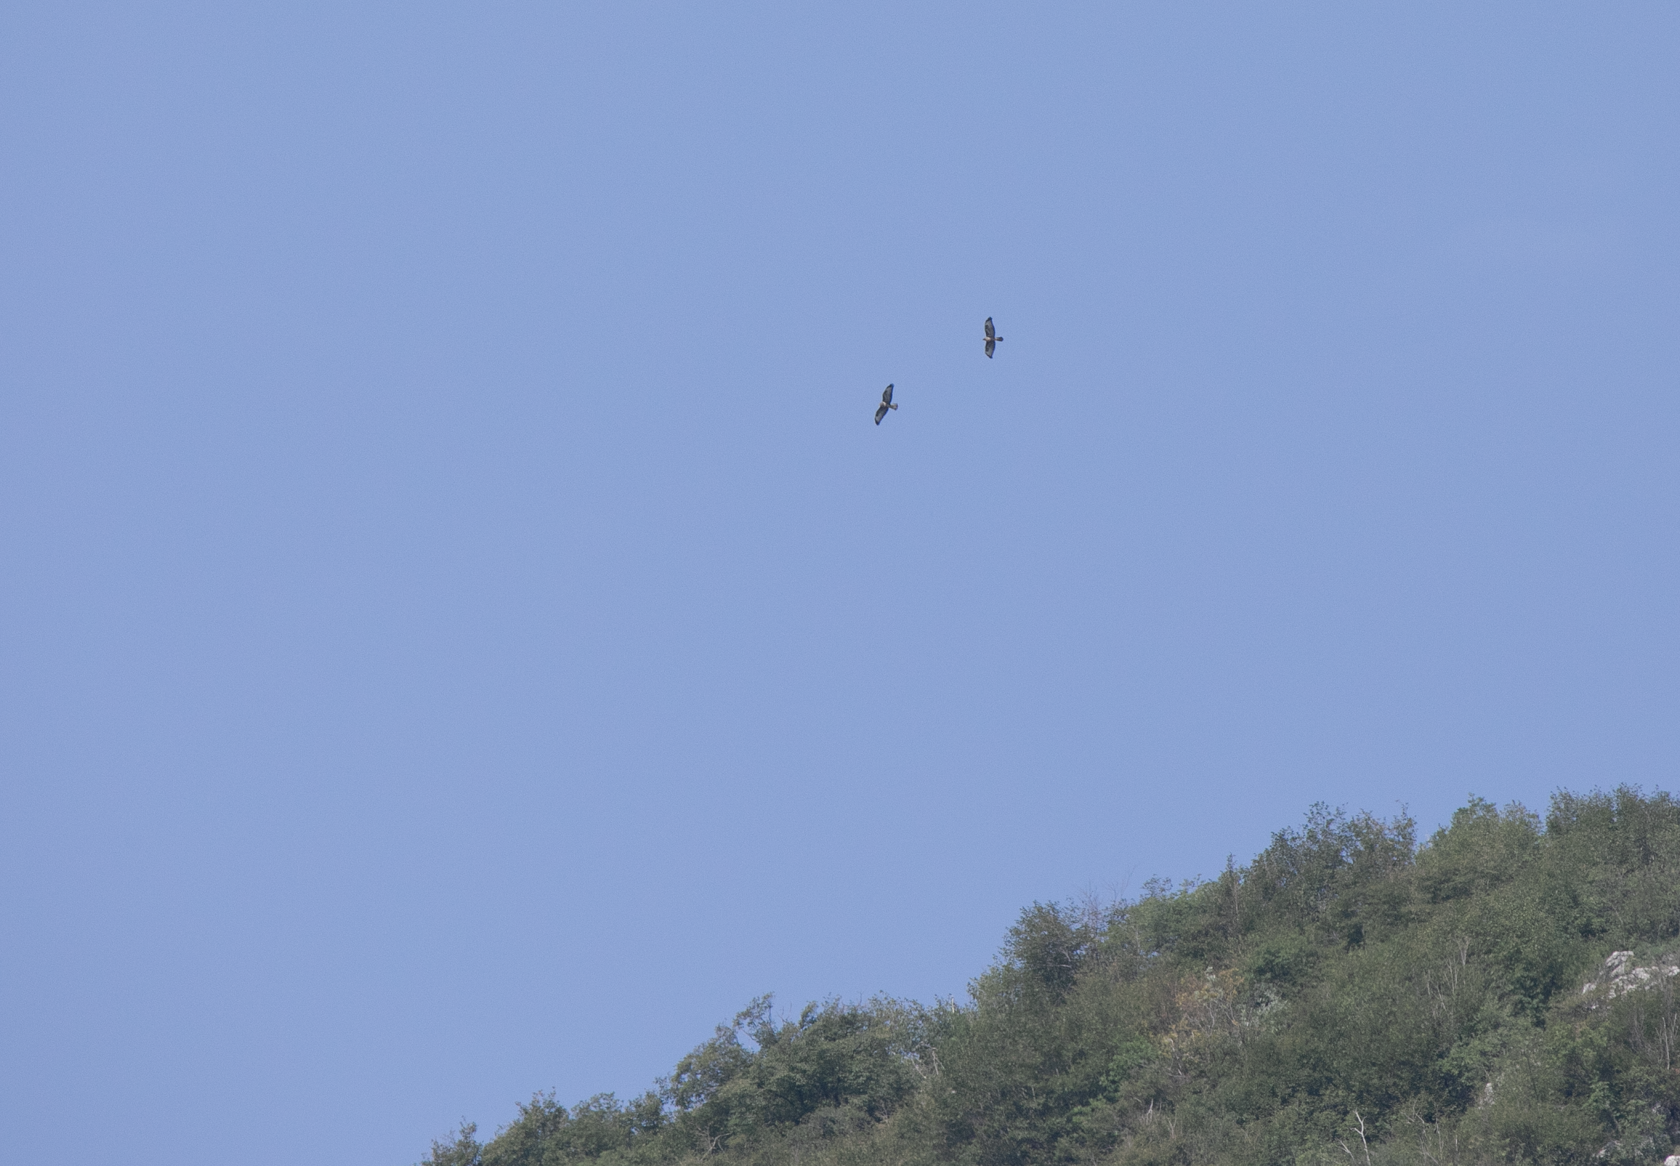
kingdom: Animalia
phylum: Chordata
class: Aves
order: Accipitriformes
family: Accipitridae
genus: Buteo
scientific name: Buteo buteo
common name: Common buzzard
